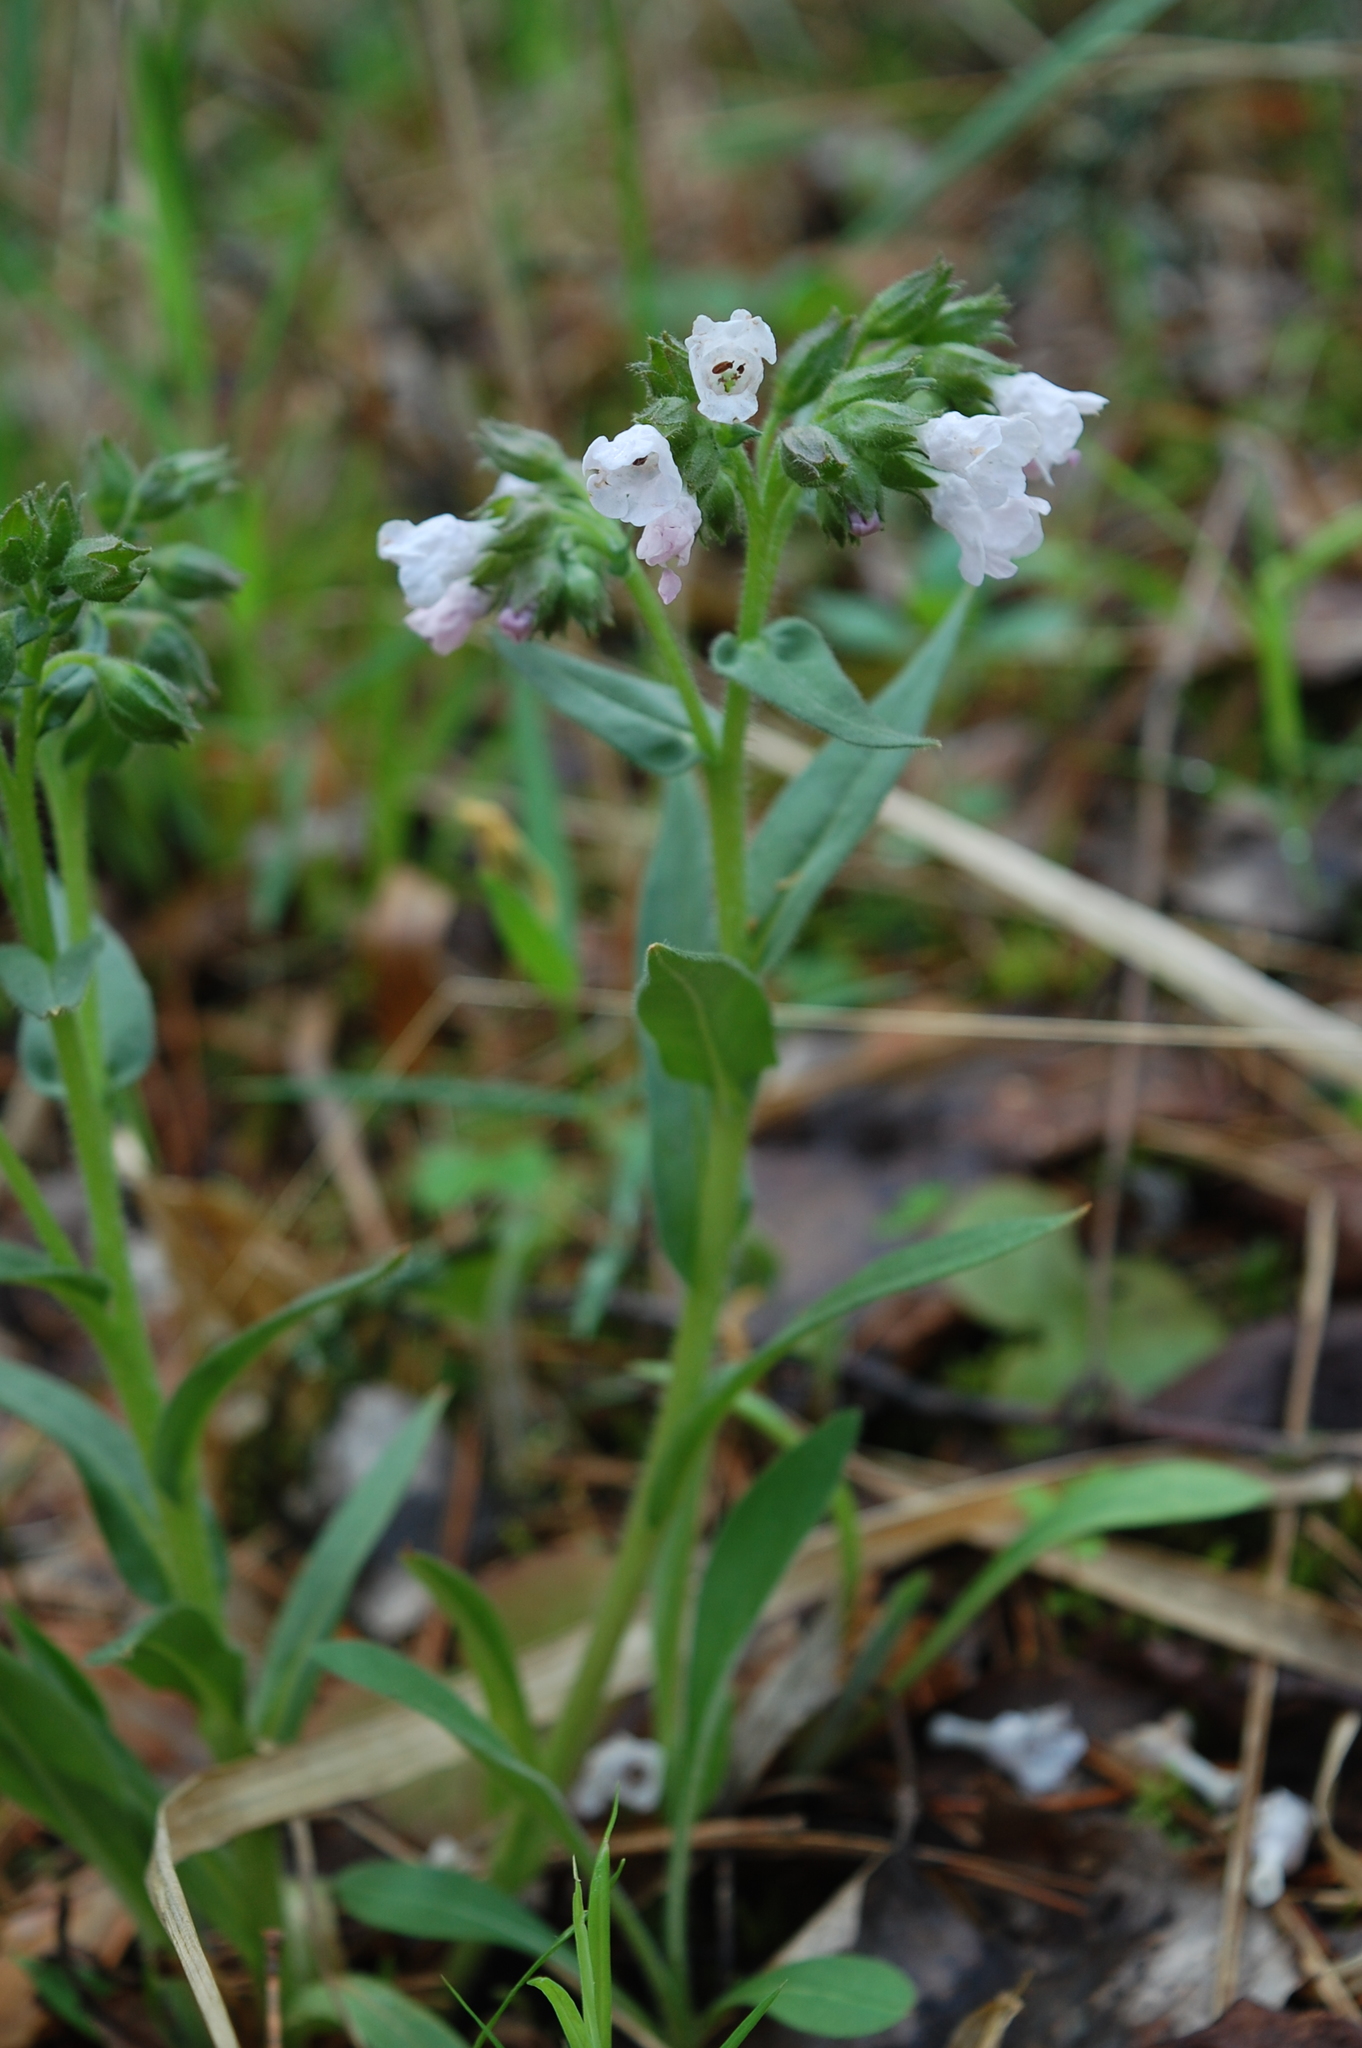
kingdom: Plantae
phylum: Tracheophyta
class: Magnoliopsida
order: Boraginales
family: Boraginaceae
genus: Pulmonaria
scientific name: Pulmonaria angustifolia
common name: Blue cowslip
